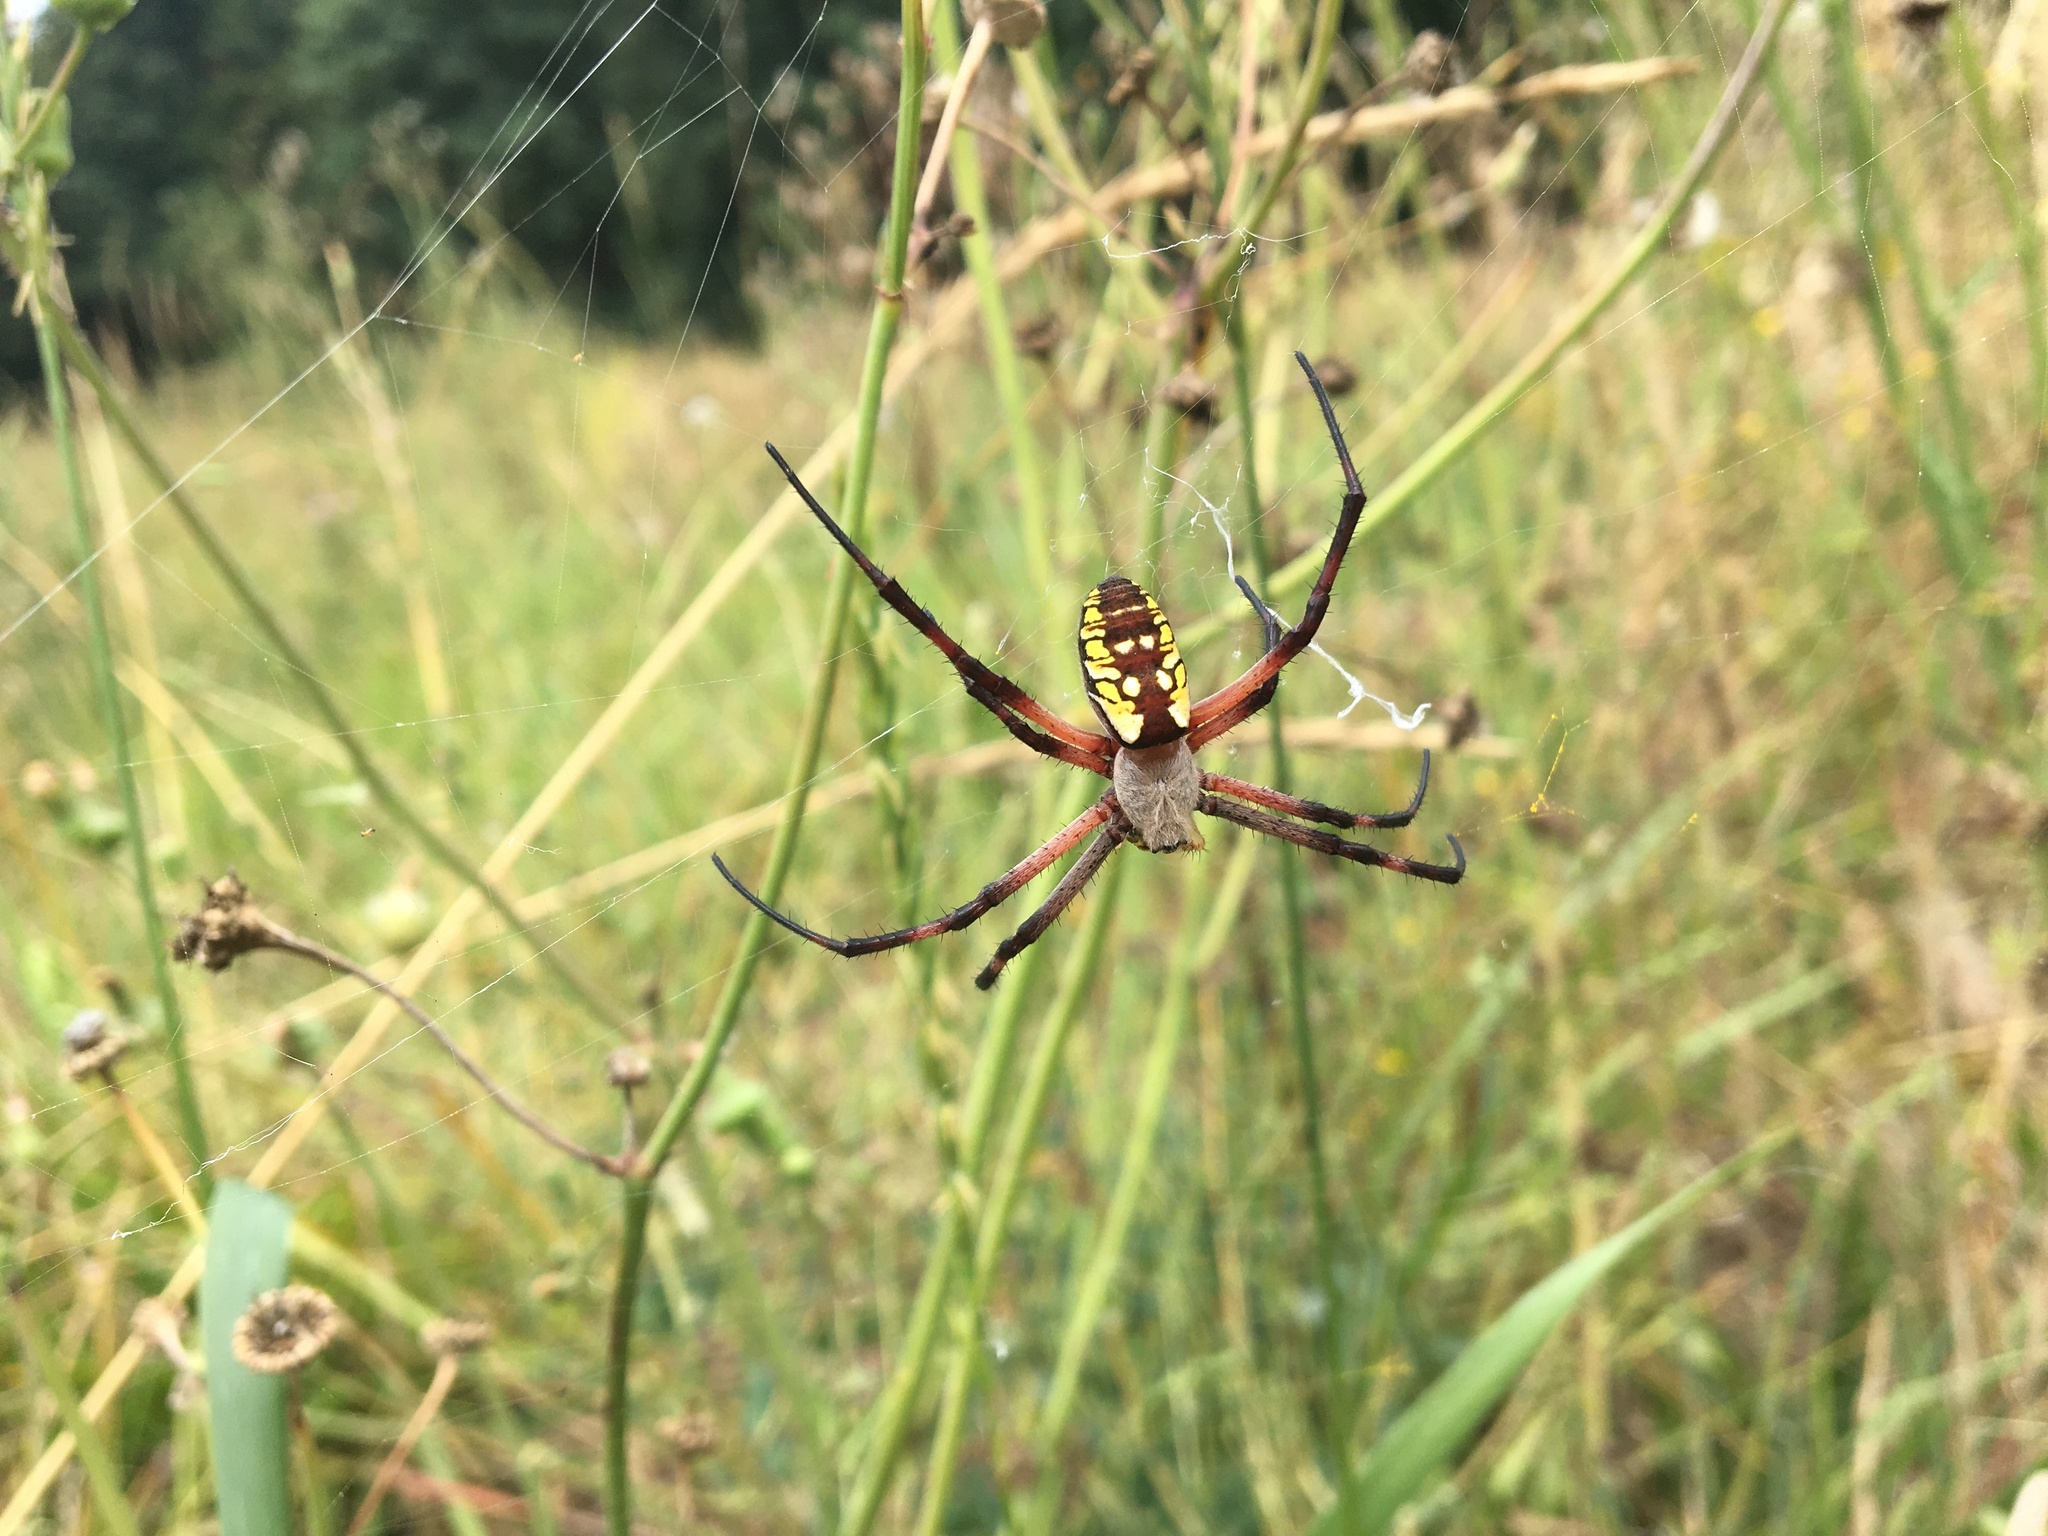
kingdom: Animalia
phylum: Arthropoda
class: Arachnida
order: Araneae
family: Araneidae
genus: Argiope
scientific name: Argiope aurantia
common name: Orb weavers
